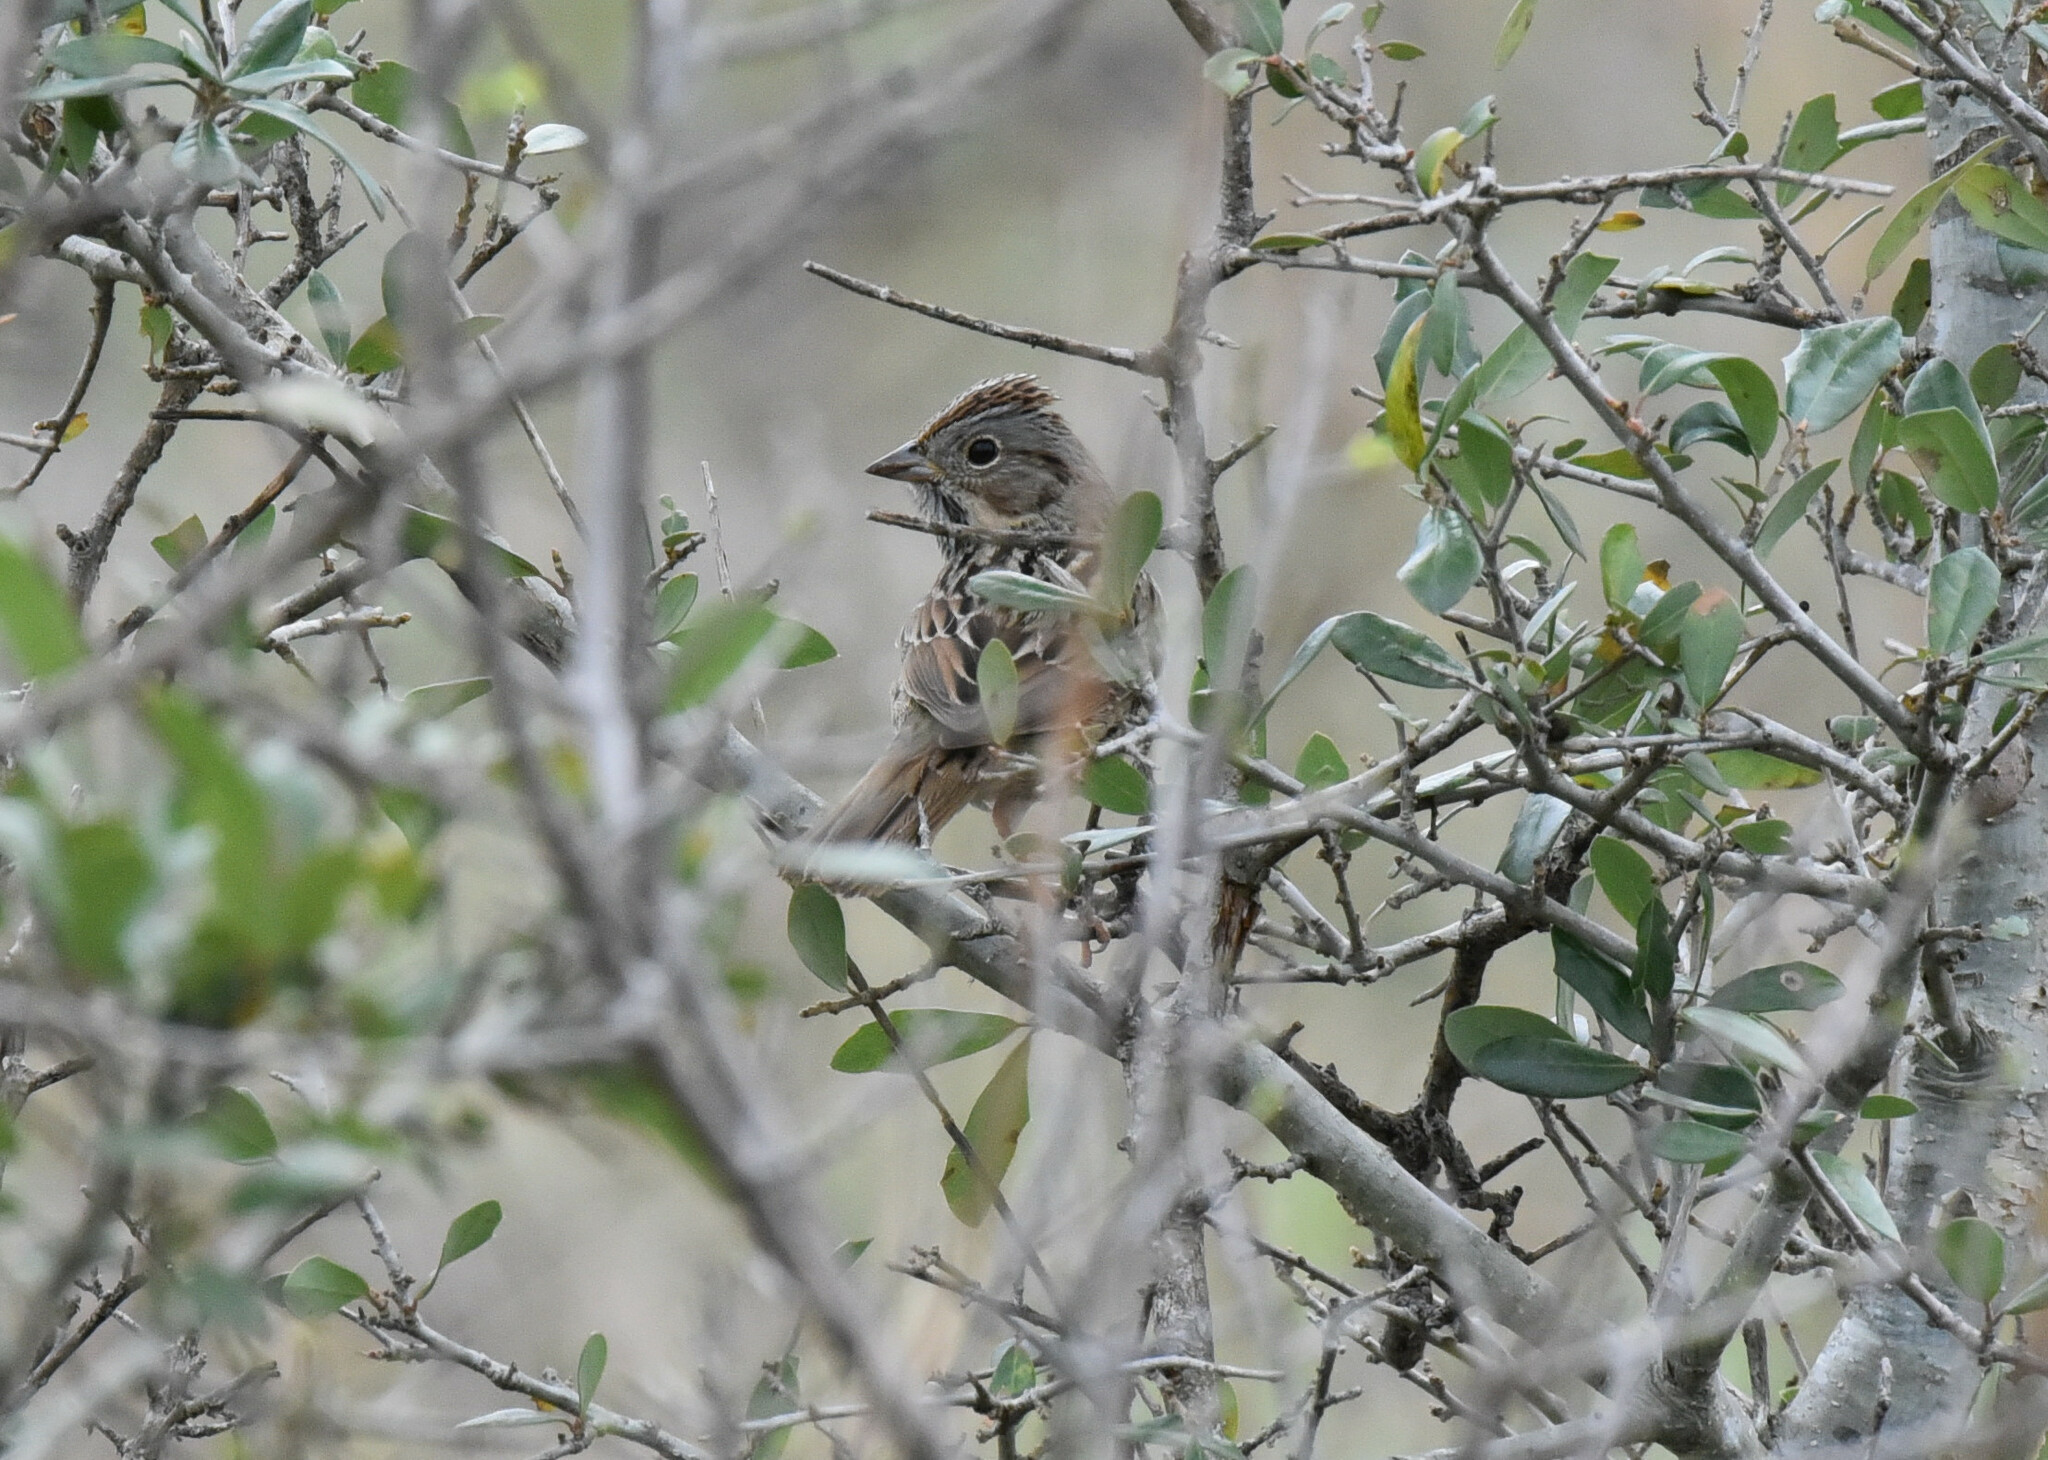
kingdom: Animalia
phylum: Chordata
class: Aves
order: Passeriformes
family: Passerellidae
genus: Melospiza
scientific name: Melospiza lincolnii
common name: Lincoln's sparrow
